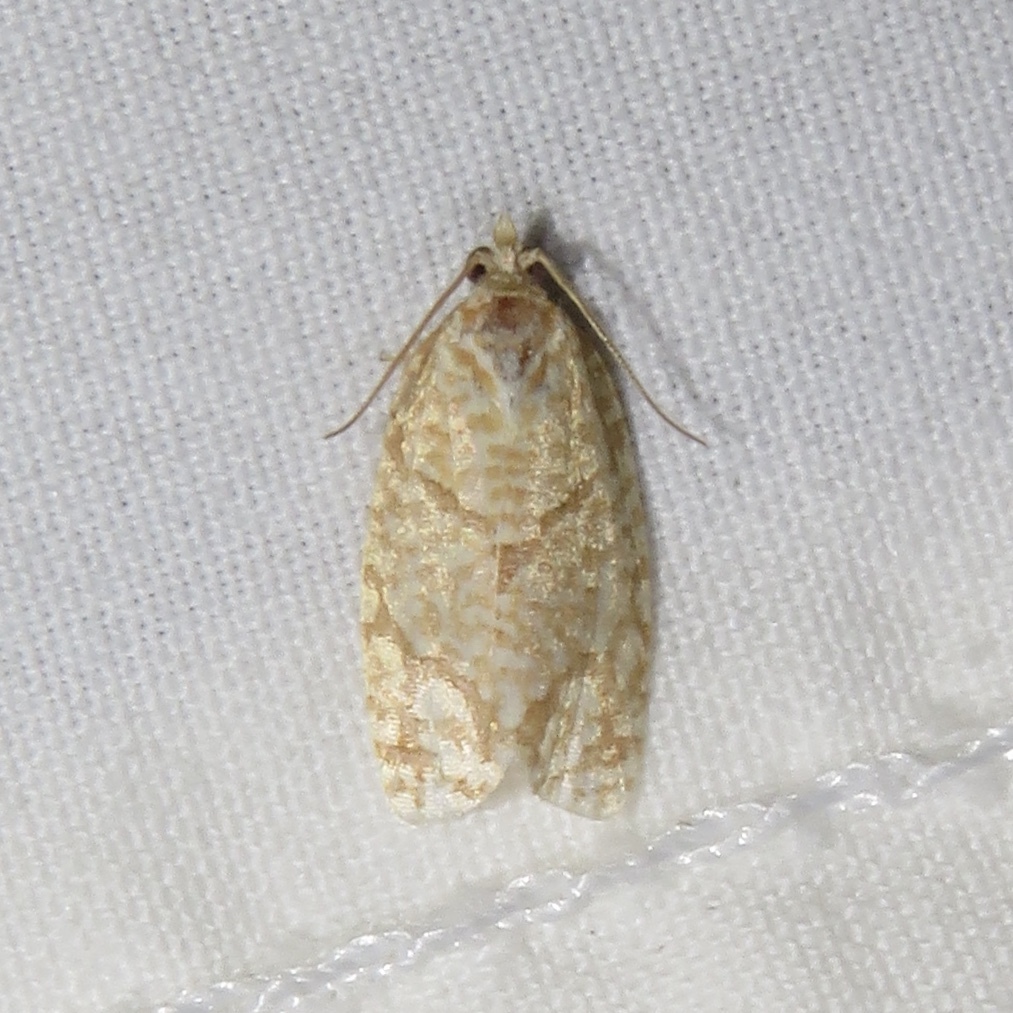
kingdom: Animalia
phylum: Arthropoda
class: Insecta
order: Lepidoptera
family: Tortricidae
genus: Argyrotaenia
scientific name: Argyrotaenia quercifoliana
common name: Yellow-winged oak leafroller moth
